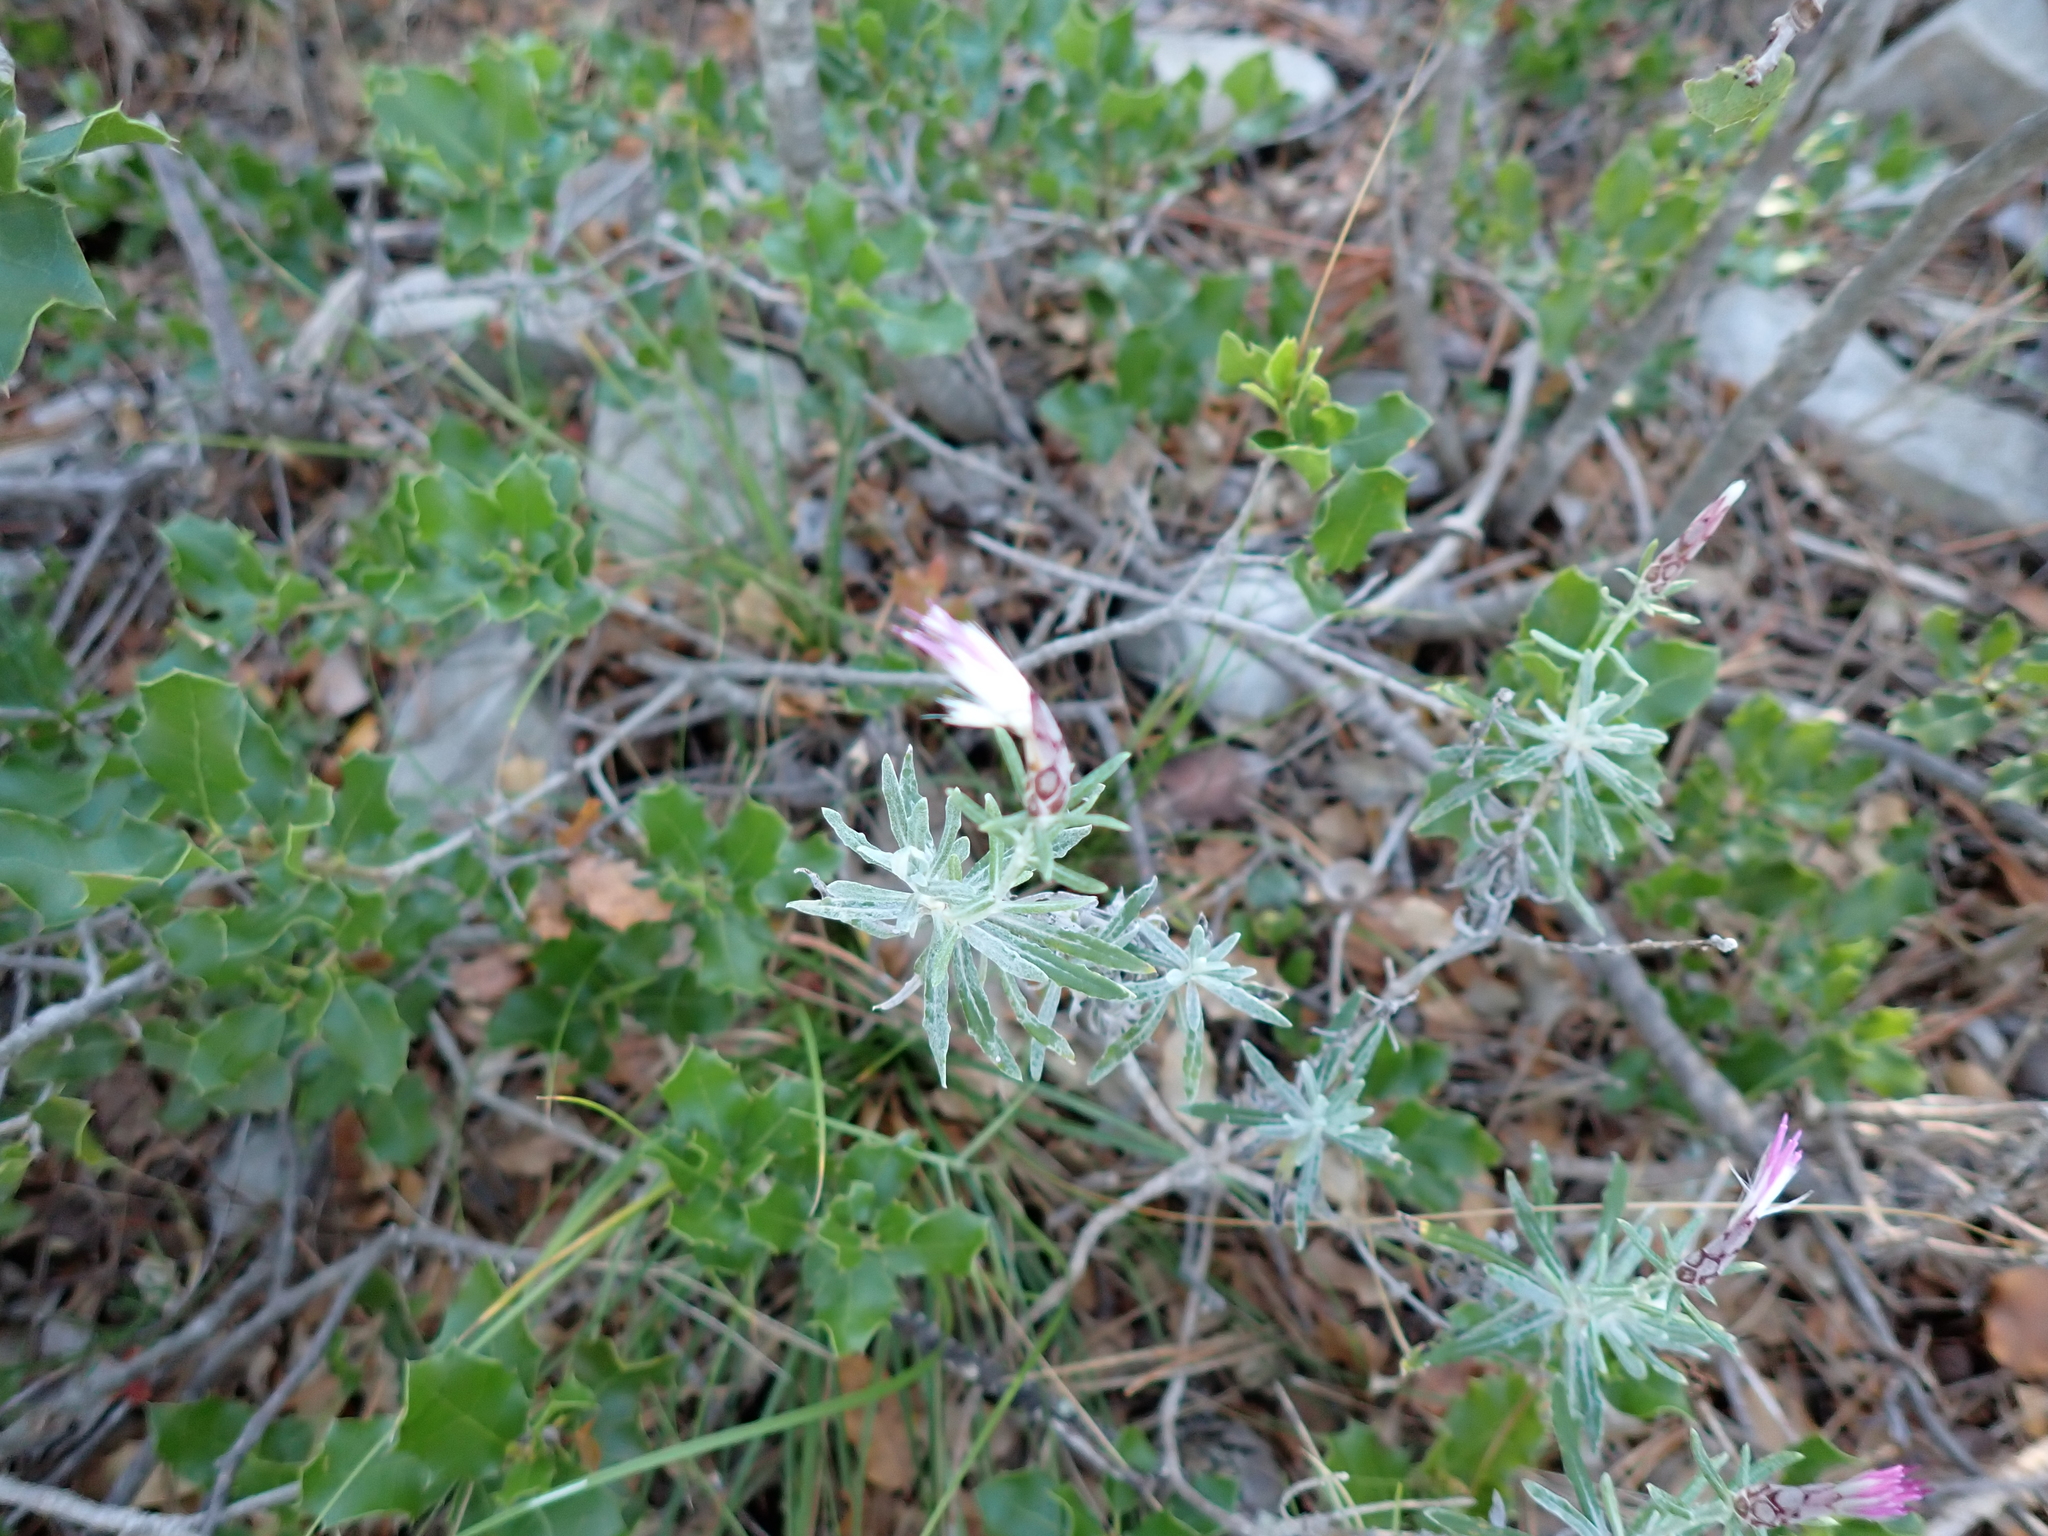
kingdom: Plantae
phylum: Tracheophyta
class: Magnoliopsida
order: Asterales
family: Asteraceae
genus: Staehelina
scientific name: Staehelina dubia
